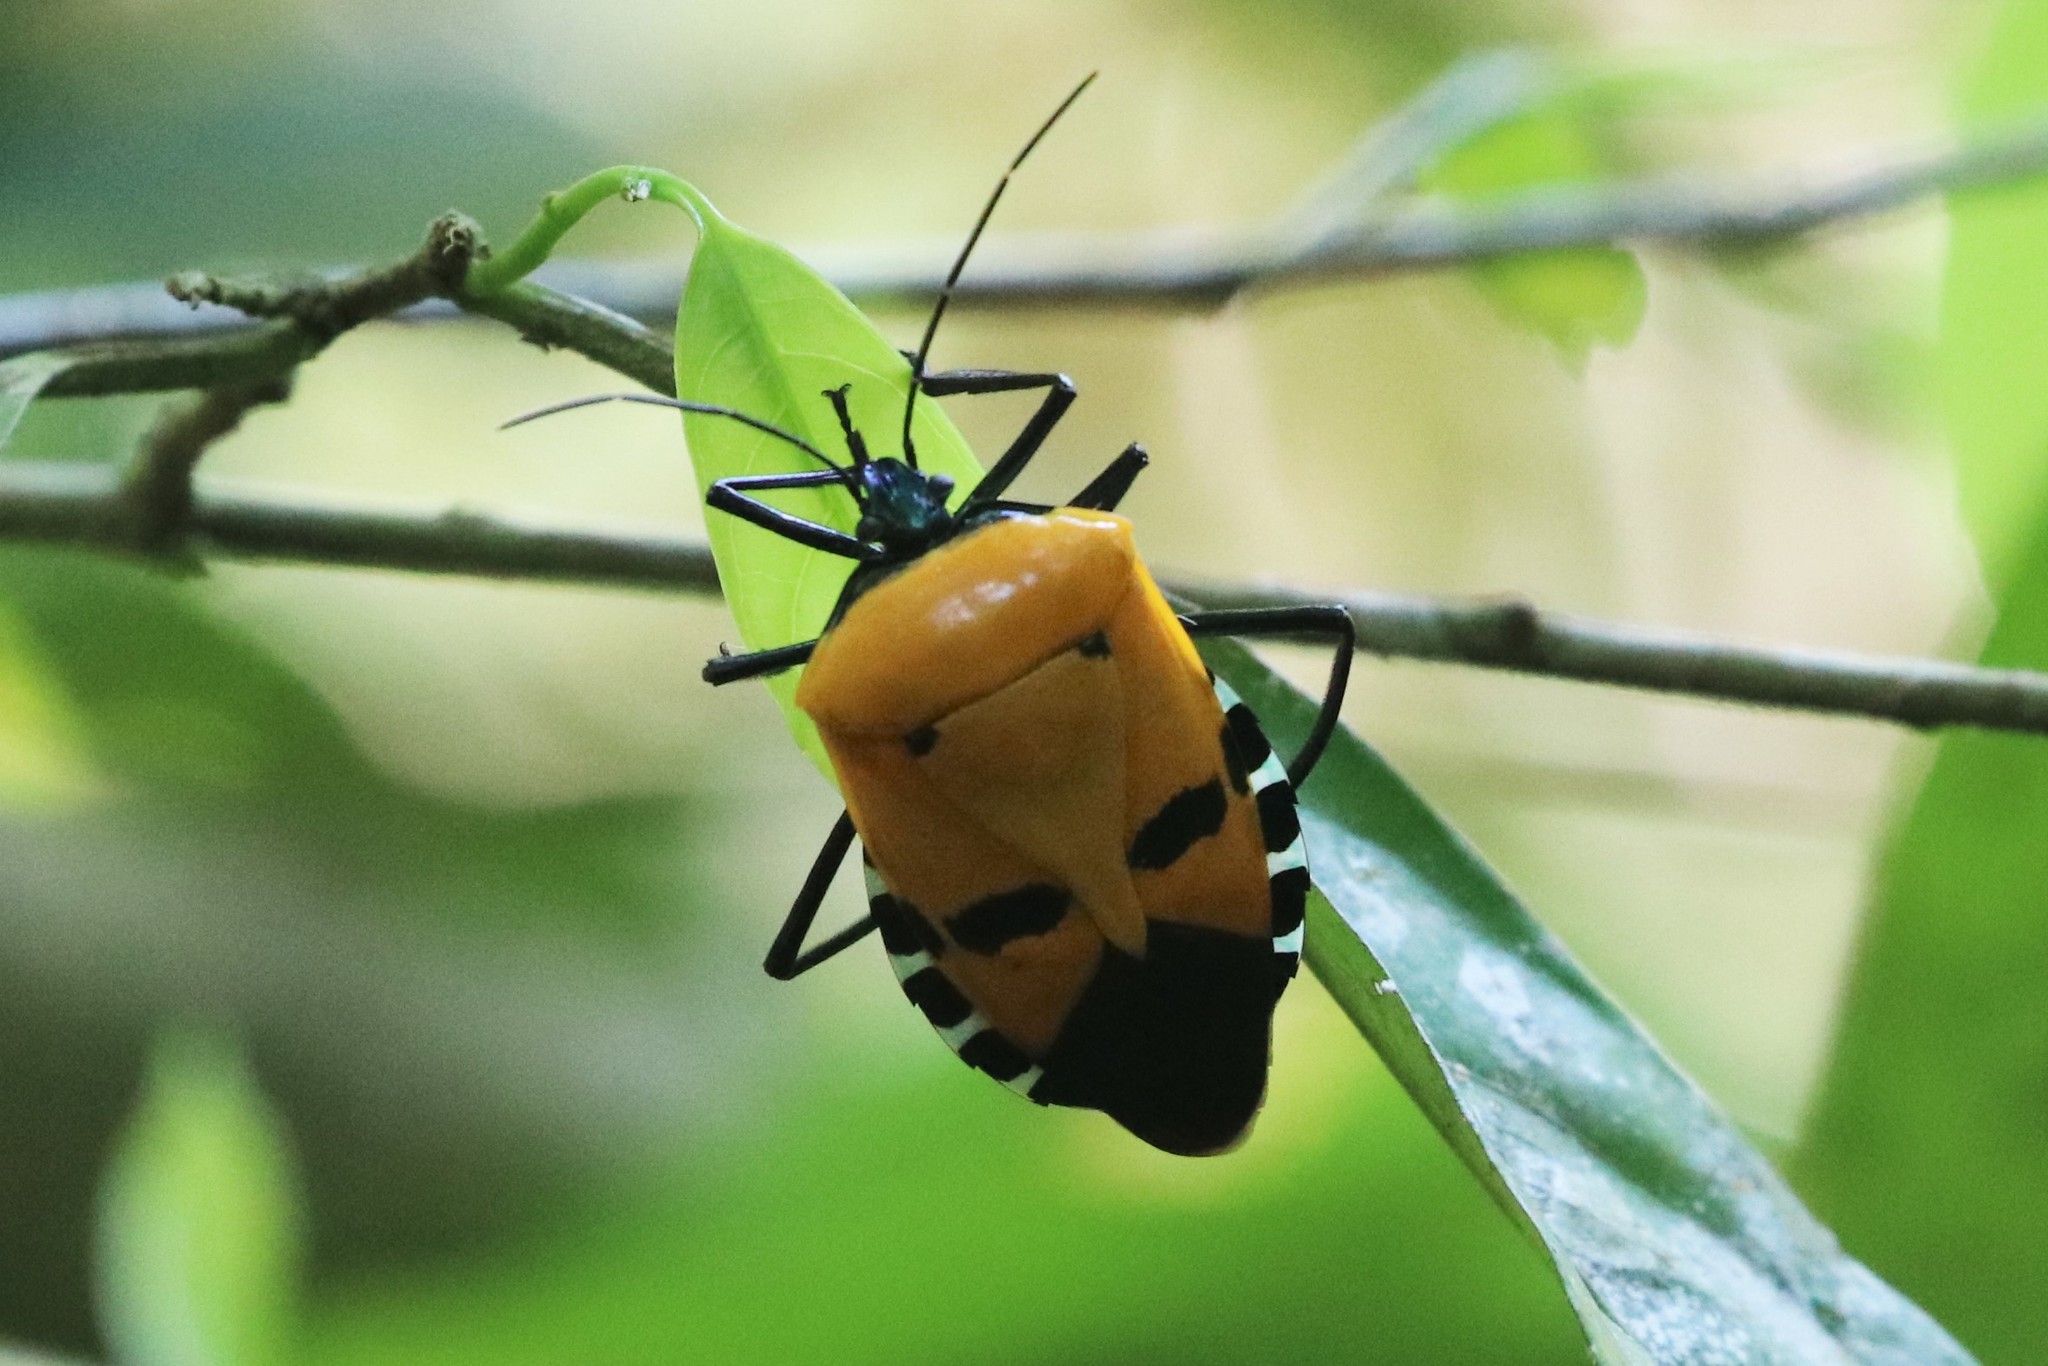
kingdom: Animalia
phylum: Arthropoda
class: Insecta
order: Hemiptera
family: Pentatomidae
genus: Catacanthus
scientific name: Catacanthus incarnatus
